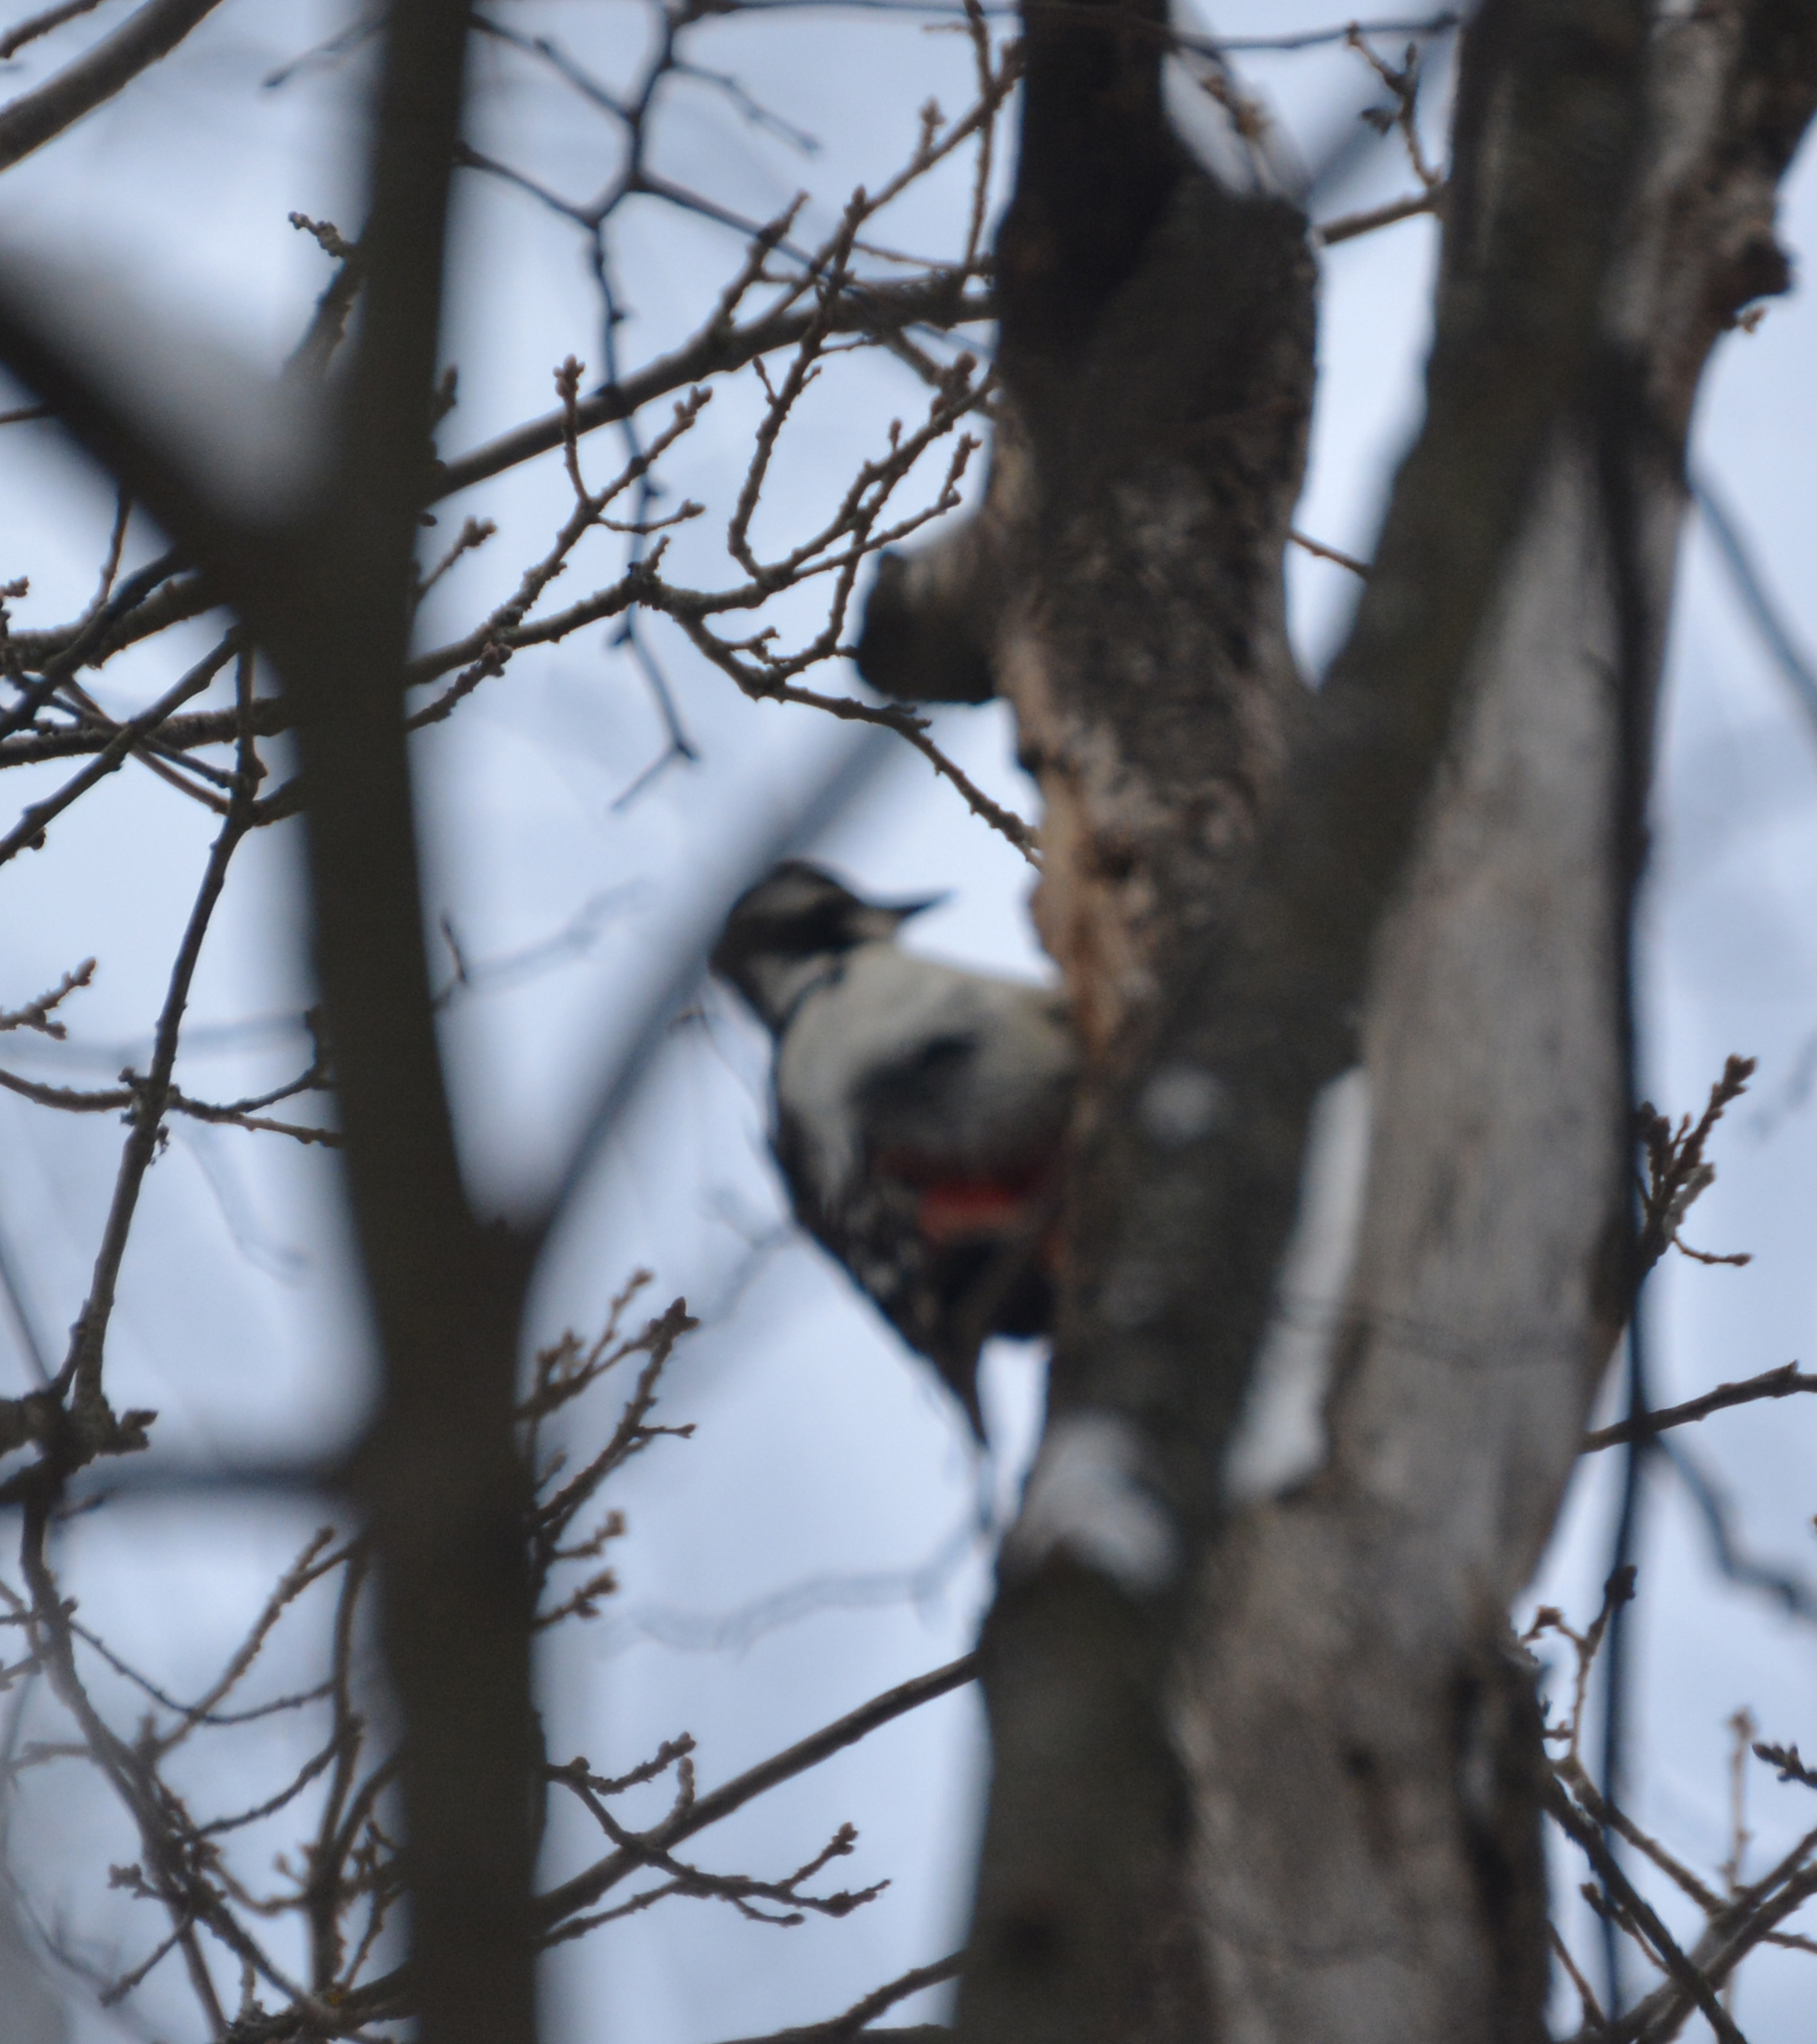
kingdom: Animalia
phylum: Chordata
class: Aves
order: Piciformes
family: Picidae
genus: Dendrocopos
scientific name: Dendrocopos major
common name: Great spotted woodpecker
